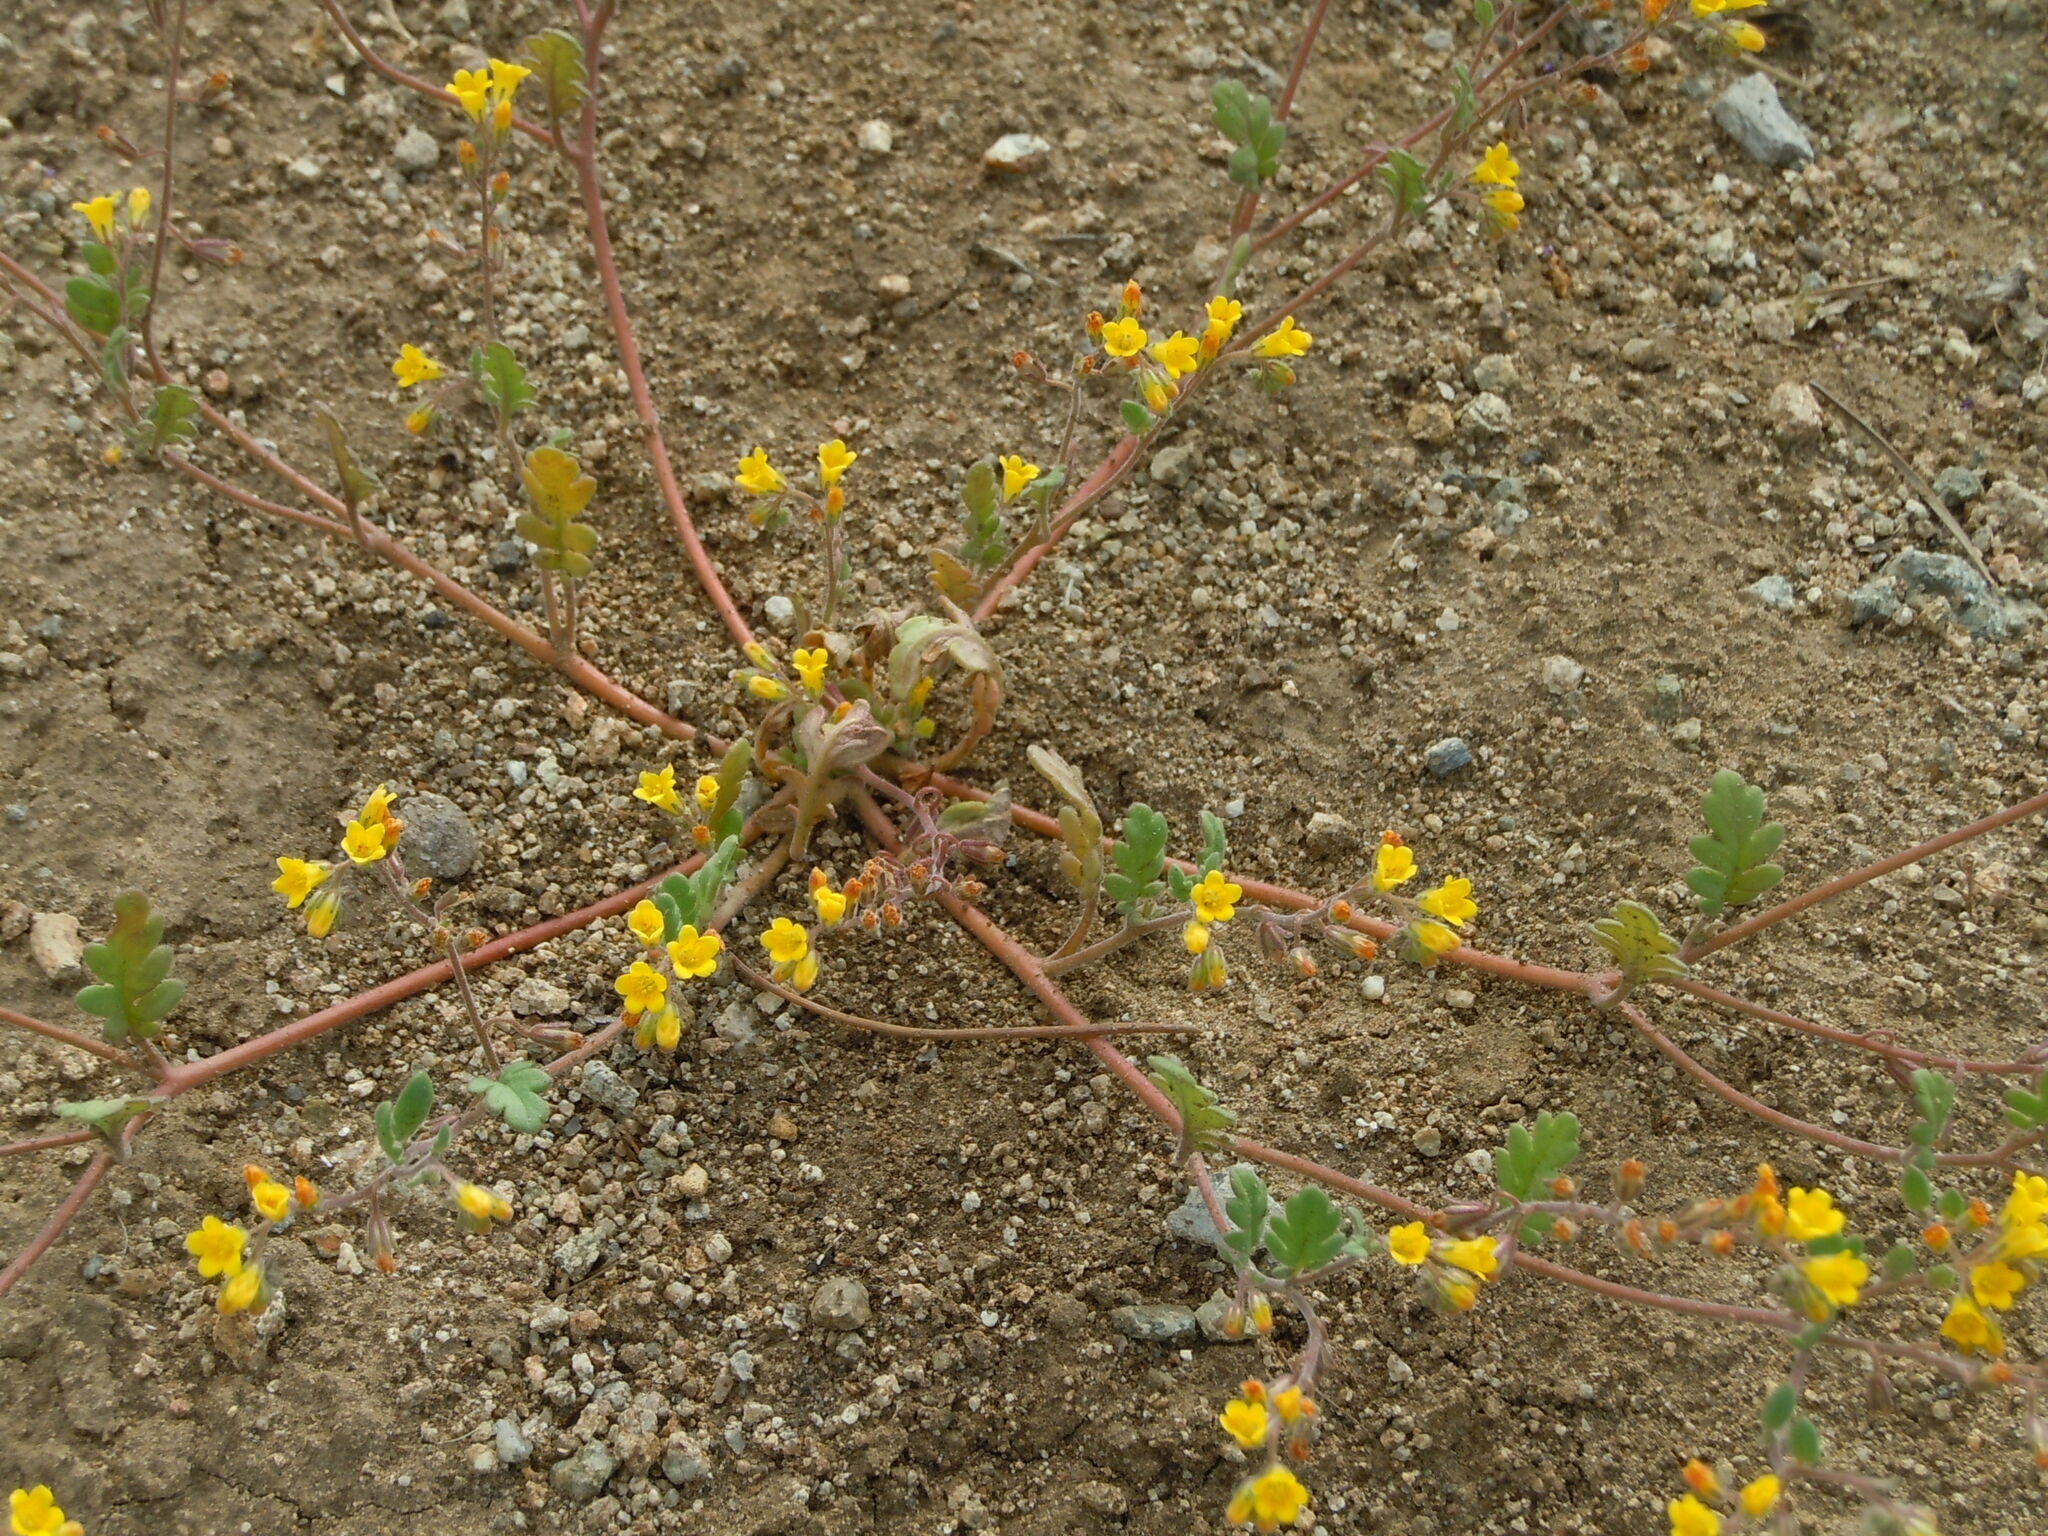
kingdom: Plantae
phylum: Tracheophyta
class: Magnoliopsida
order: Boraginales
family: Hydrophyllaceae
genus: Phacelia
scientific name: Phacelia adenophora
